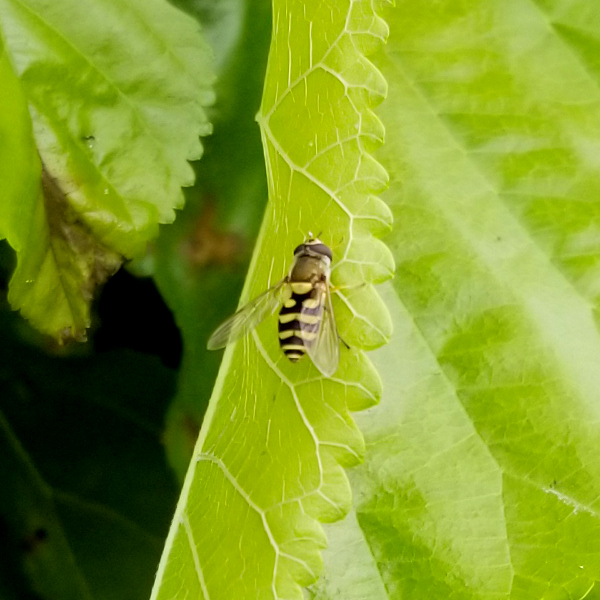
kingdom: Animalia
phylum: Arthropoda
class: Insecta
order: Diptera
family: Syrphidae
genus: Syrphus
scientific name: Syrphus
